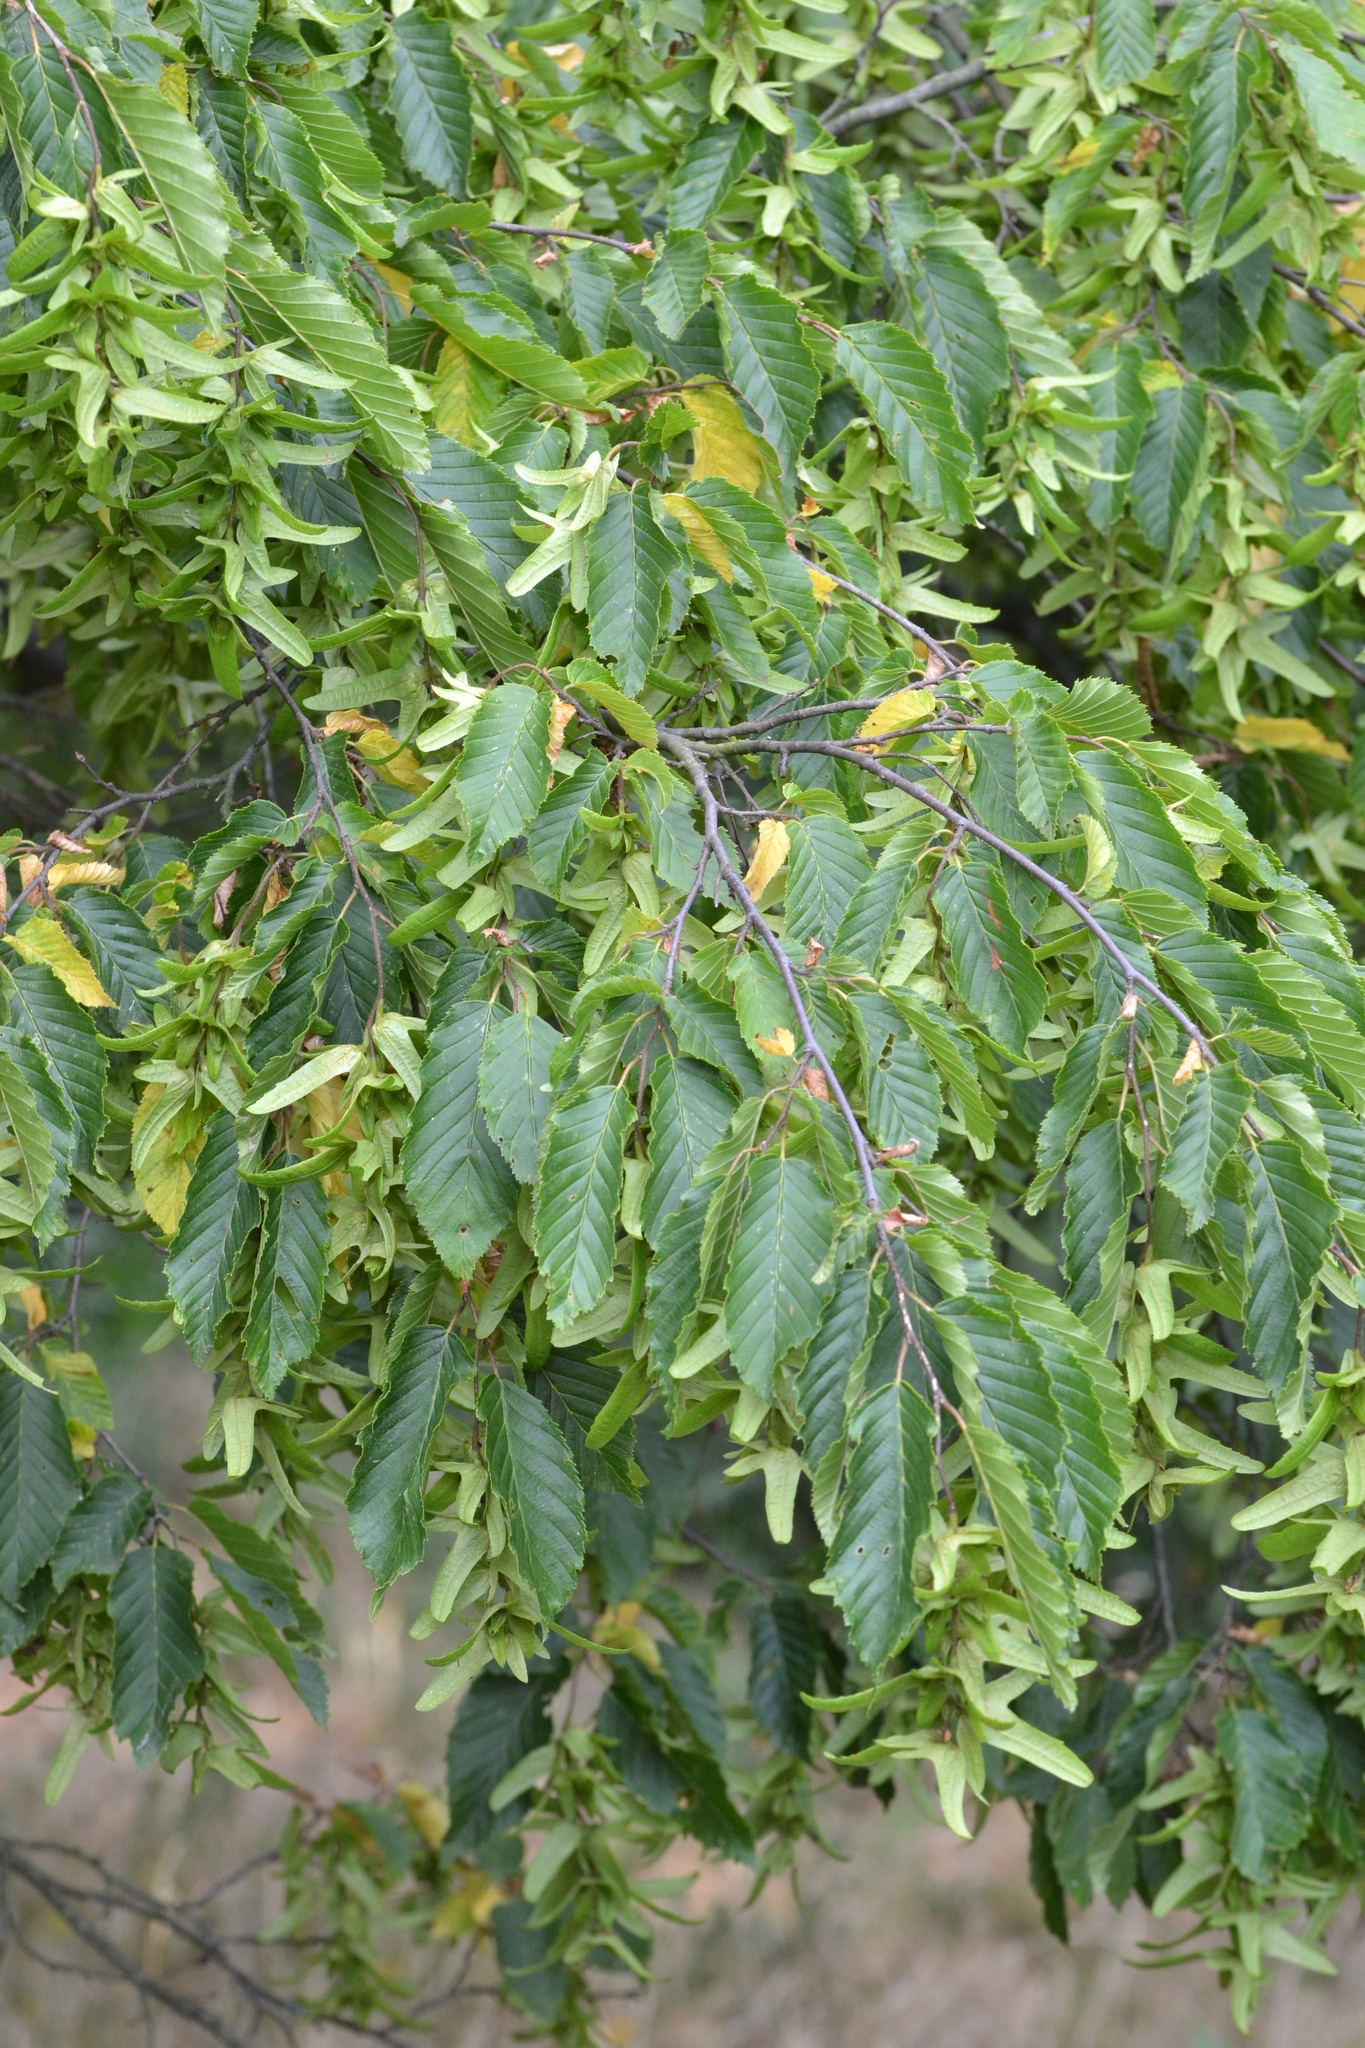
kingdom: Plantae
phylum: Tracheophyta
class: Magnoliopsida
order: Fagales
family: Betulaceae
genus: Carpinus
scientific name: Carpinus betulus
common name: Hornbeam
